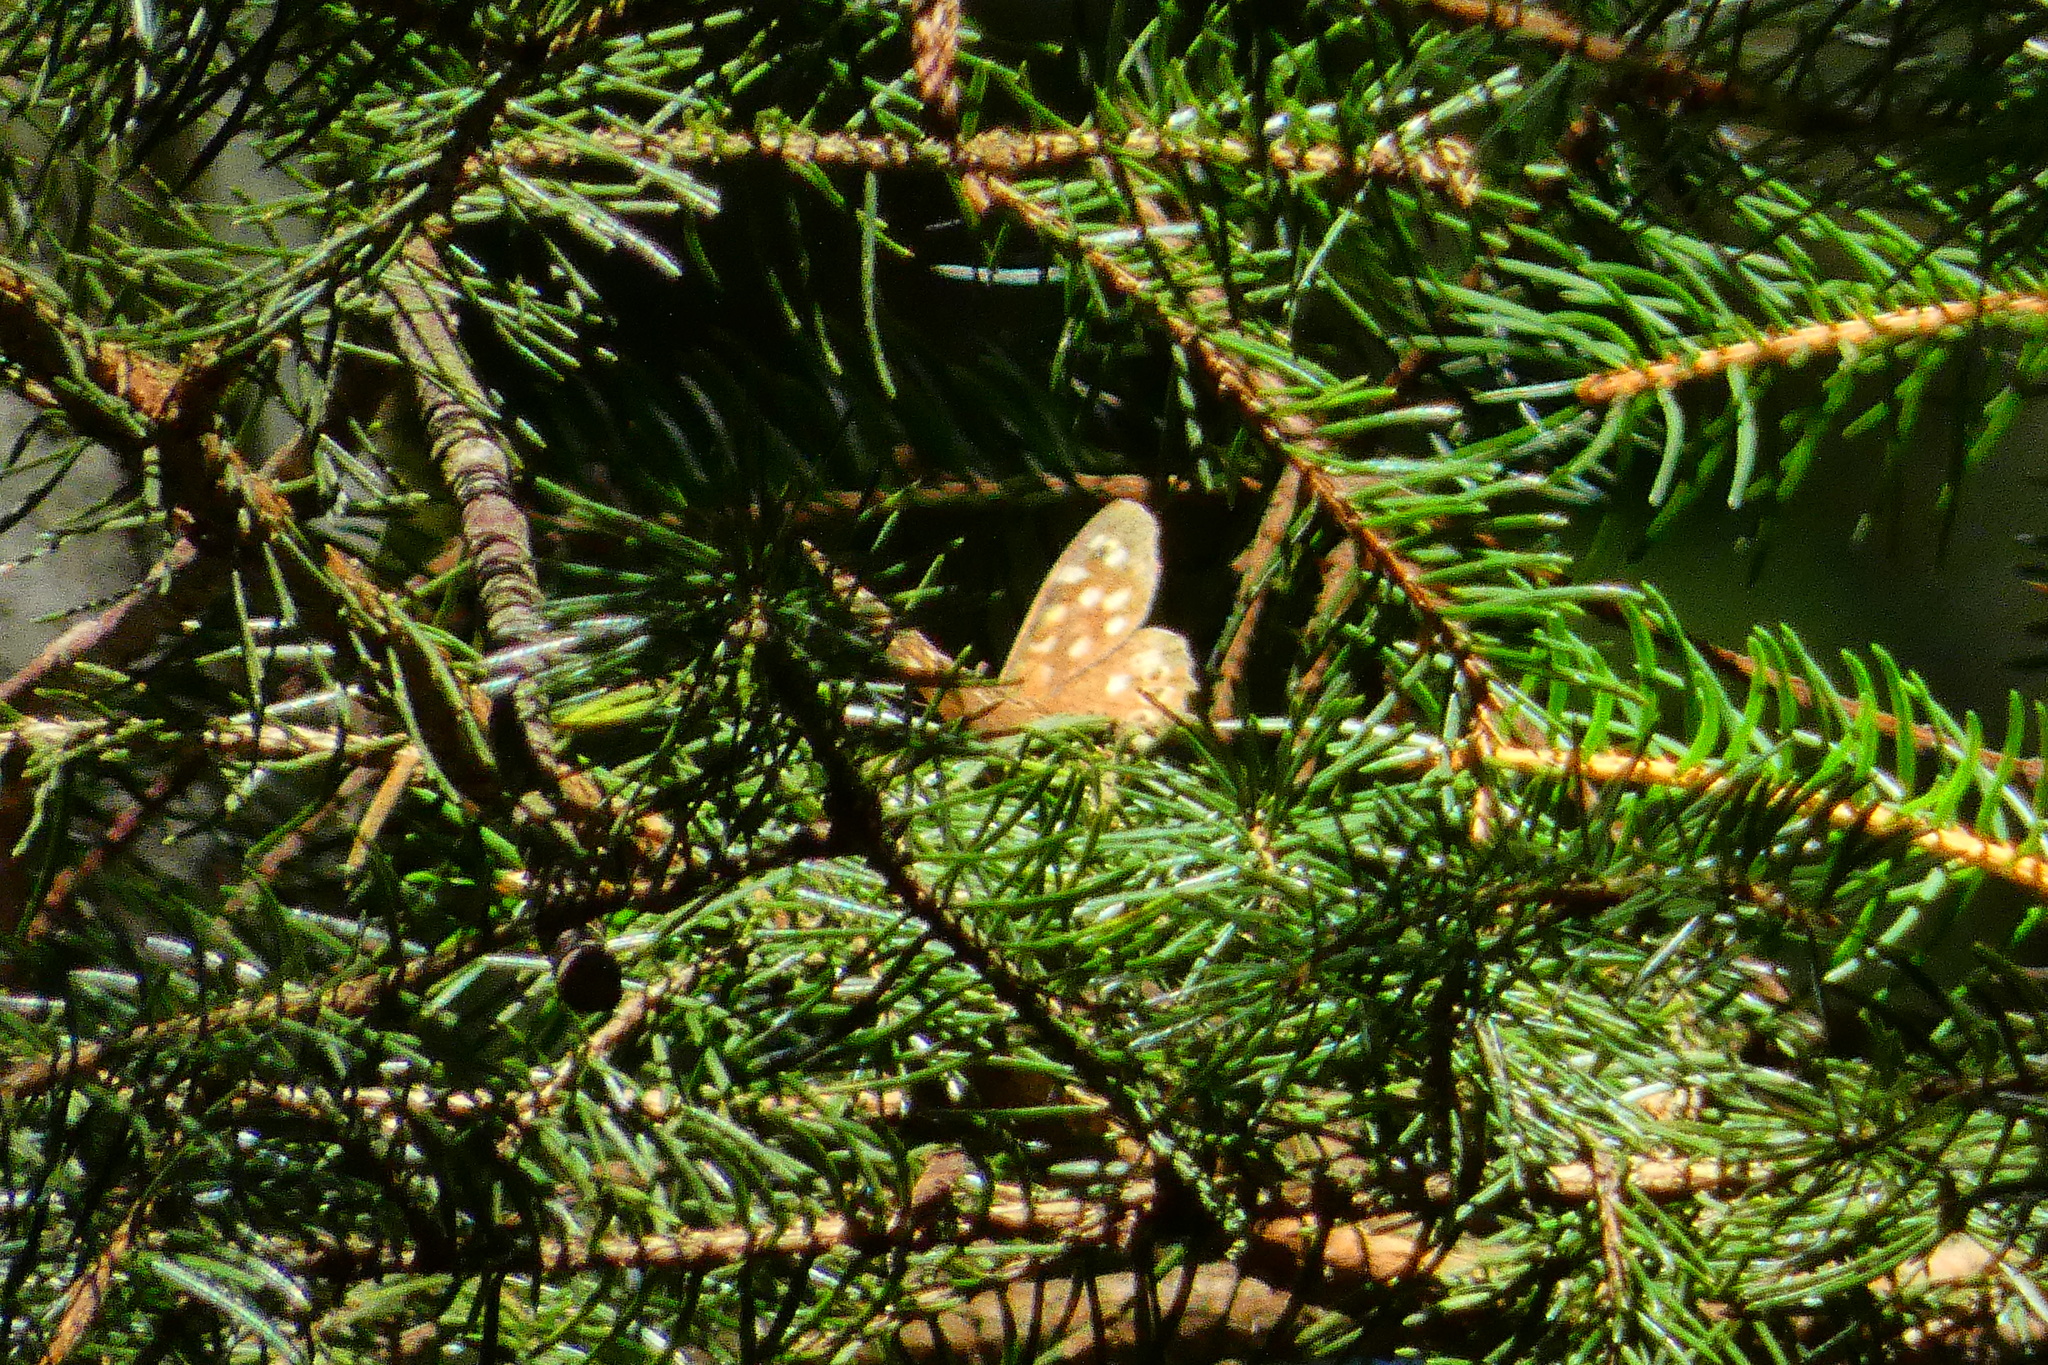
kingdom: Animalia
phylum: Arthropoda
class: Insecta
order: Lepidoptera
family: Nymphalidae
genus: Pararge
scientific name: Pararge aegeria
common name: Speckled wood
